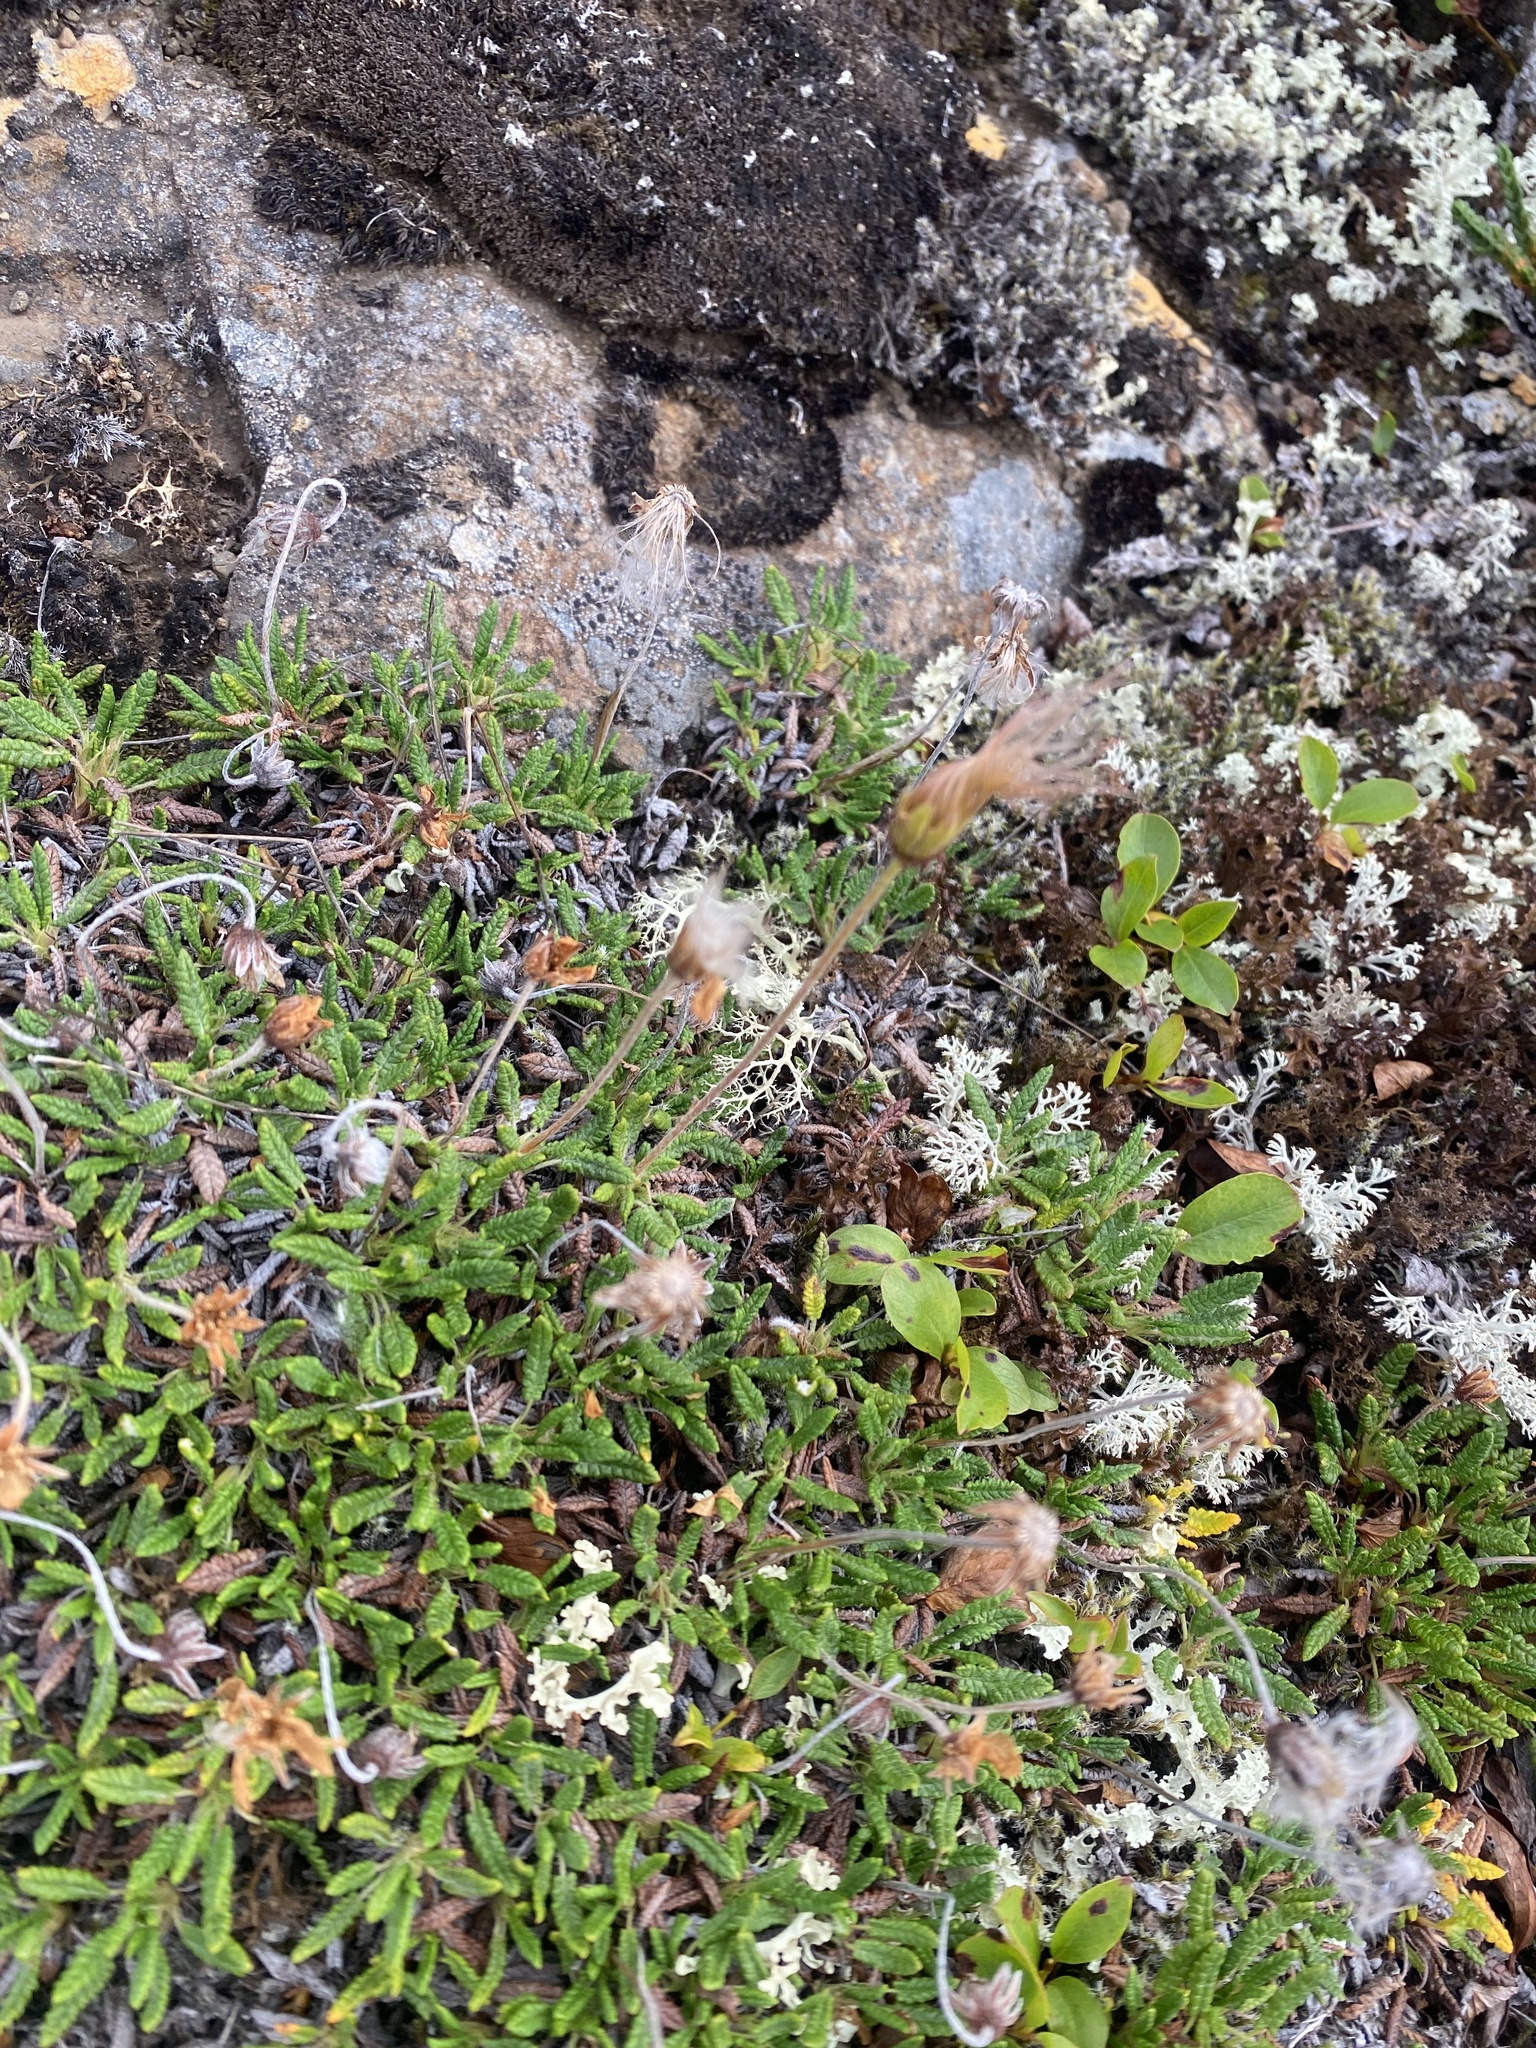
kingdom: Plantae
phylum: Tracheophyta
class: Magnoliopsida
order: Rosales
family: Rosaceae
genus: Dryas
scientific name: Dryas octopetala
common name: Eight-petal mountain-avens
